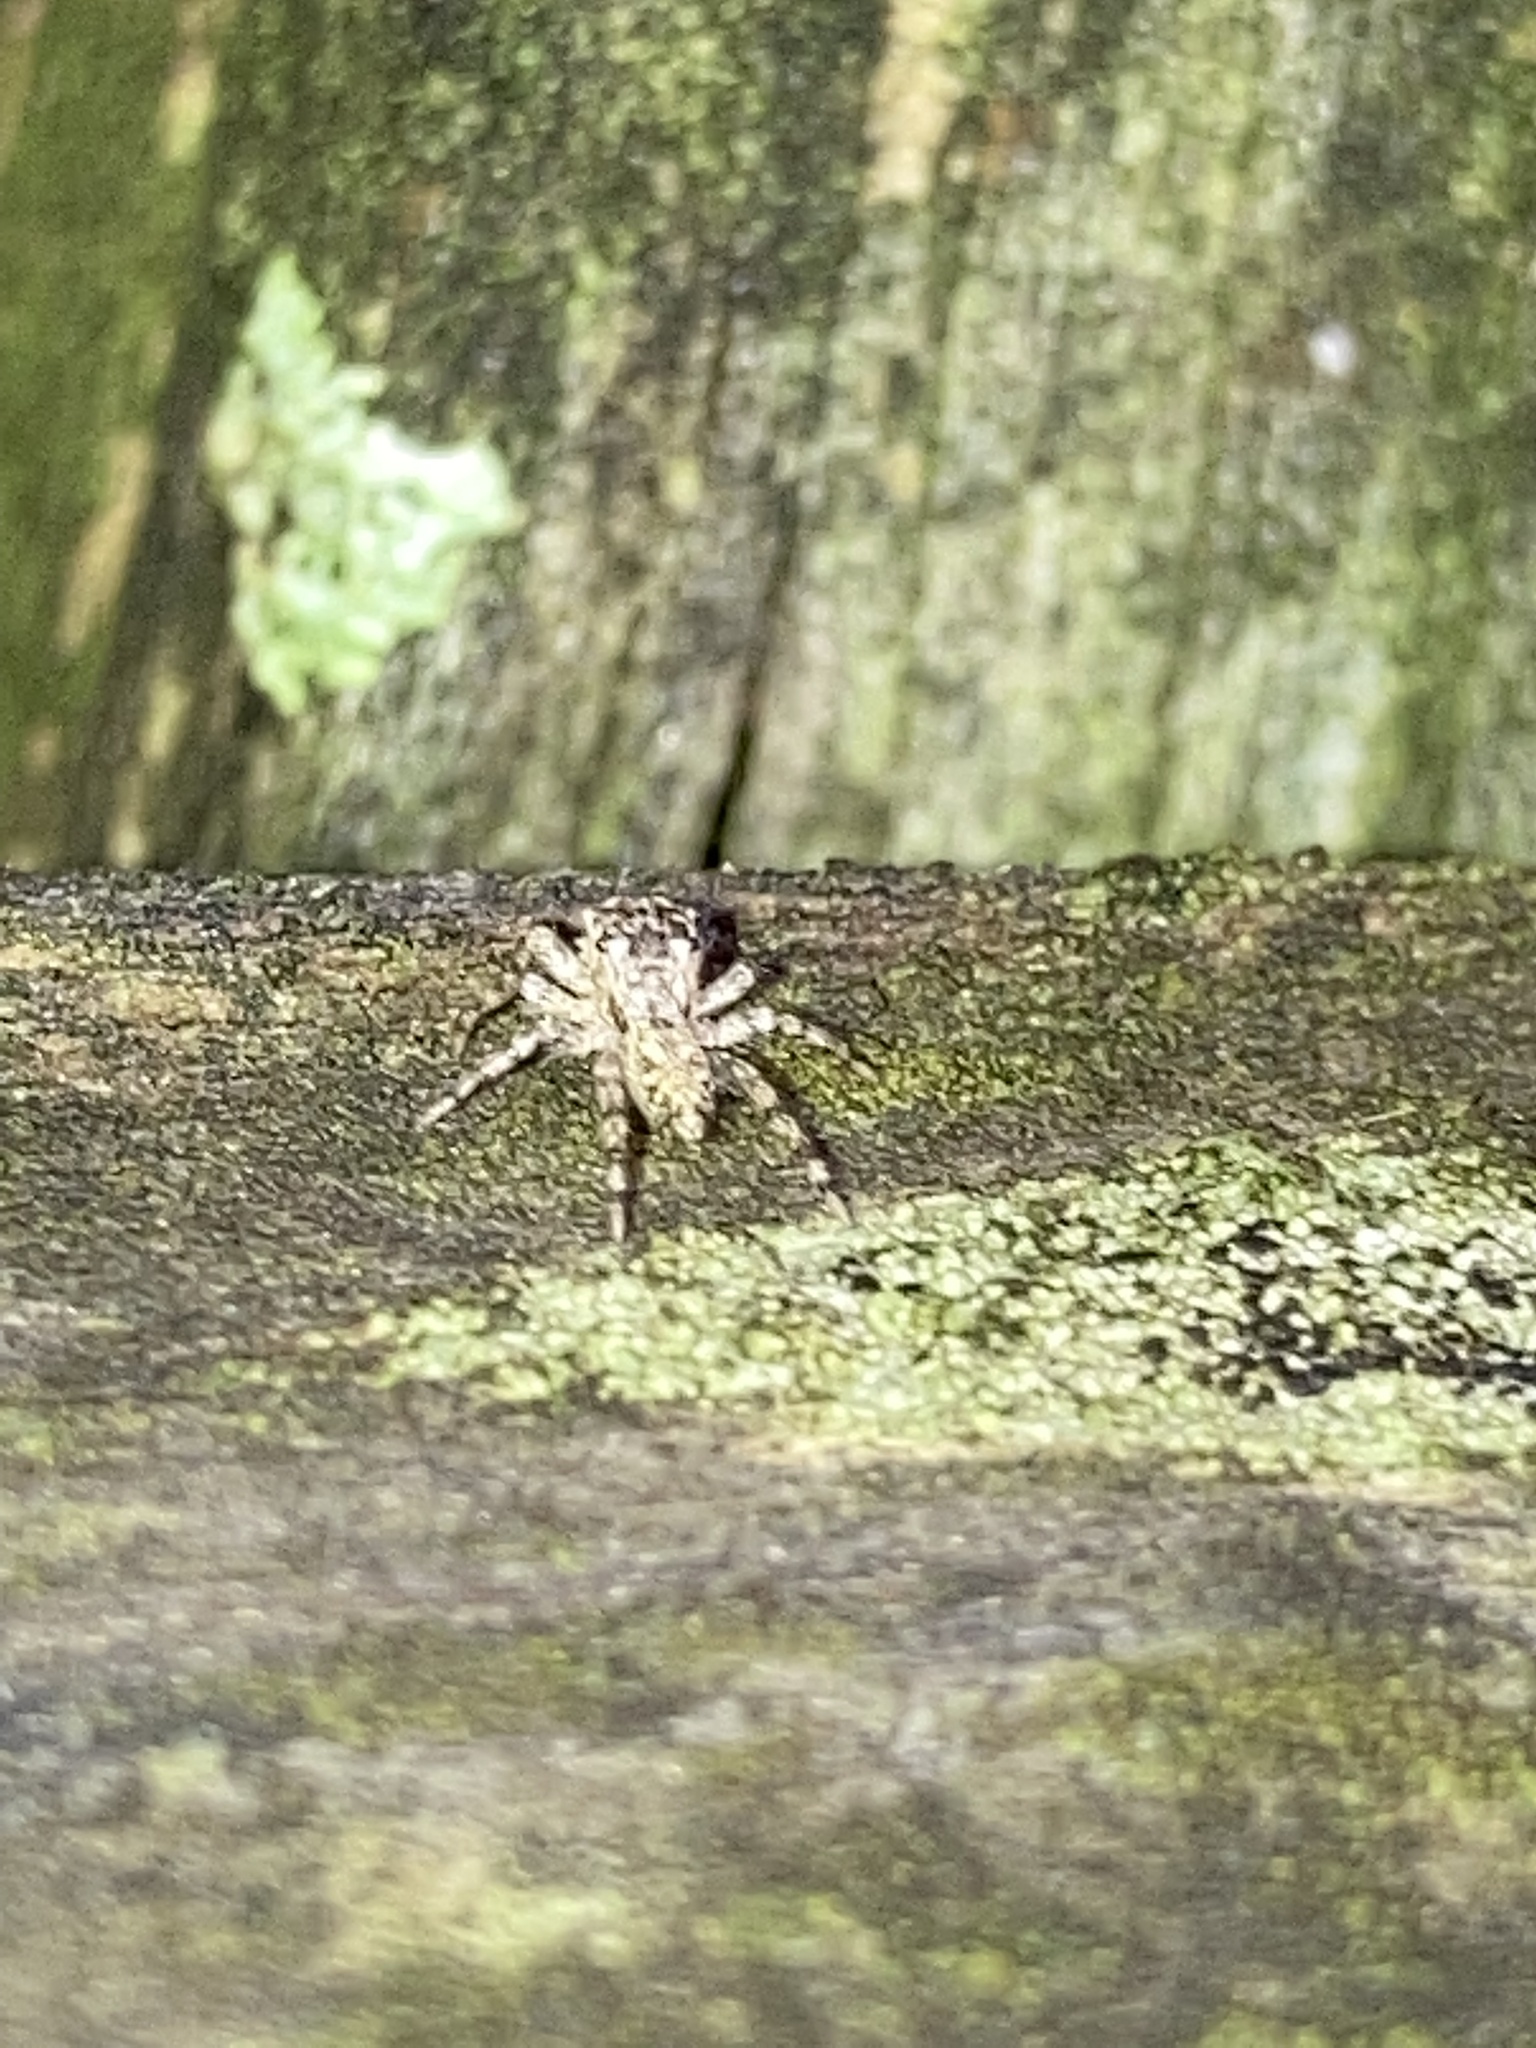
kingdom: Animalia
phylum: Arthropoda
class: Arachnida
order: Araneae
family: Salticidae
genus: Platycryptus
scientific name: Platycryptus undatus
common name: Tan jumping spider
